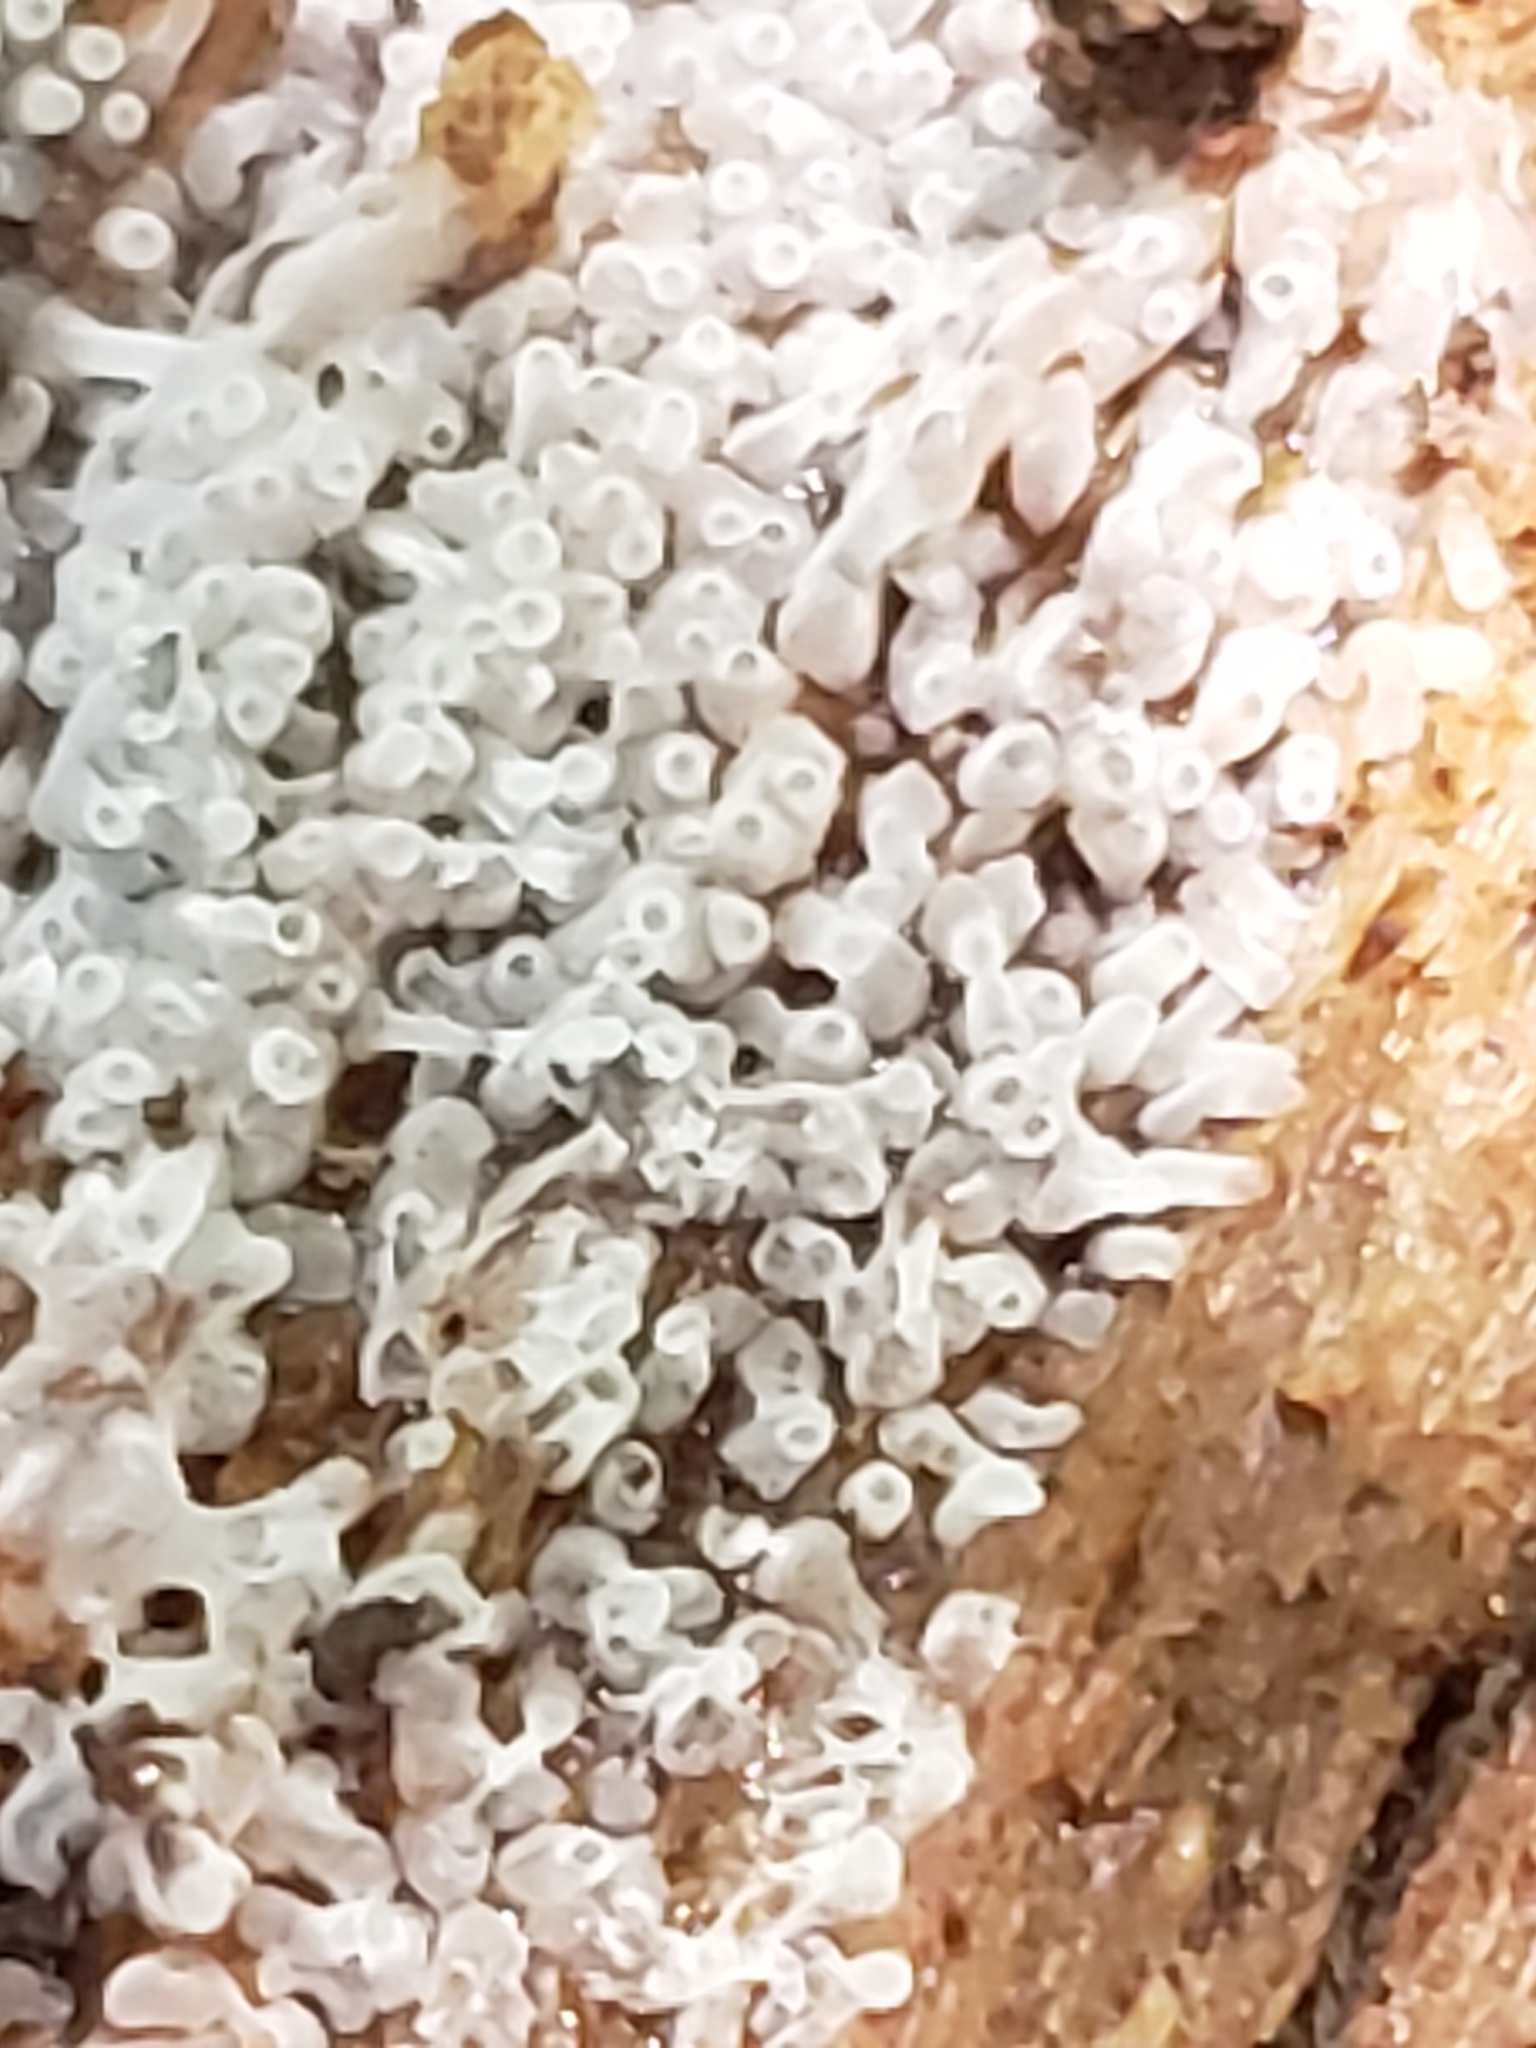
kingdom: Protozoa
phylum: Mycetozoa
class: Protosteliomycetes
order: Ceratiomyxales
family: Ceratiomyxaceae
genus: Ceratiomyxa
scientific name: Ceratiomyxa fruticulosa
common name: Honeycomb coral slime mold
